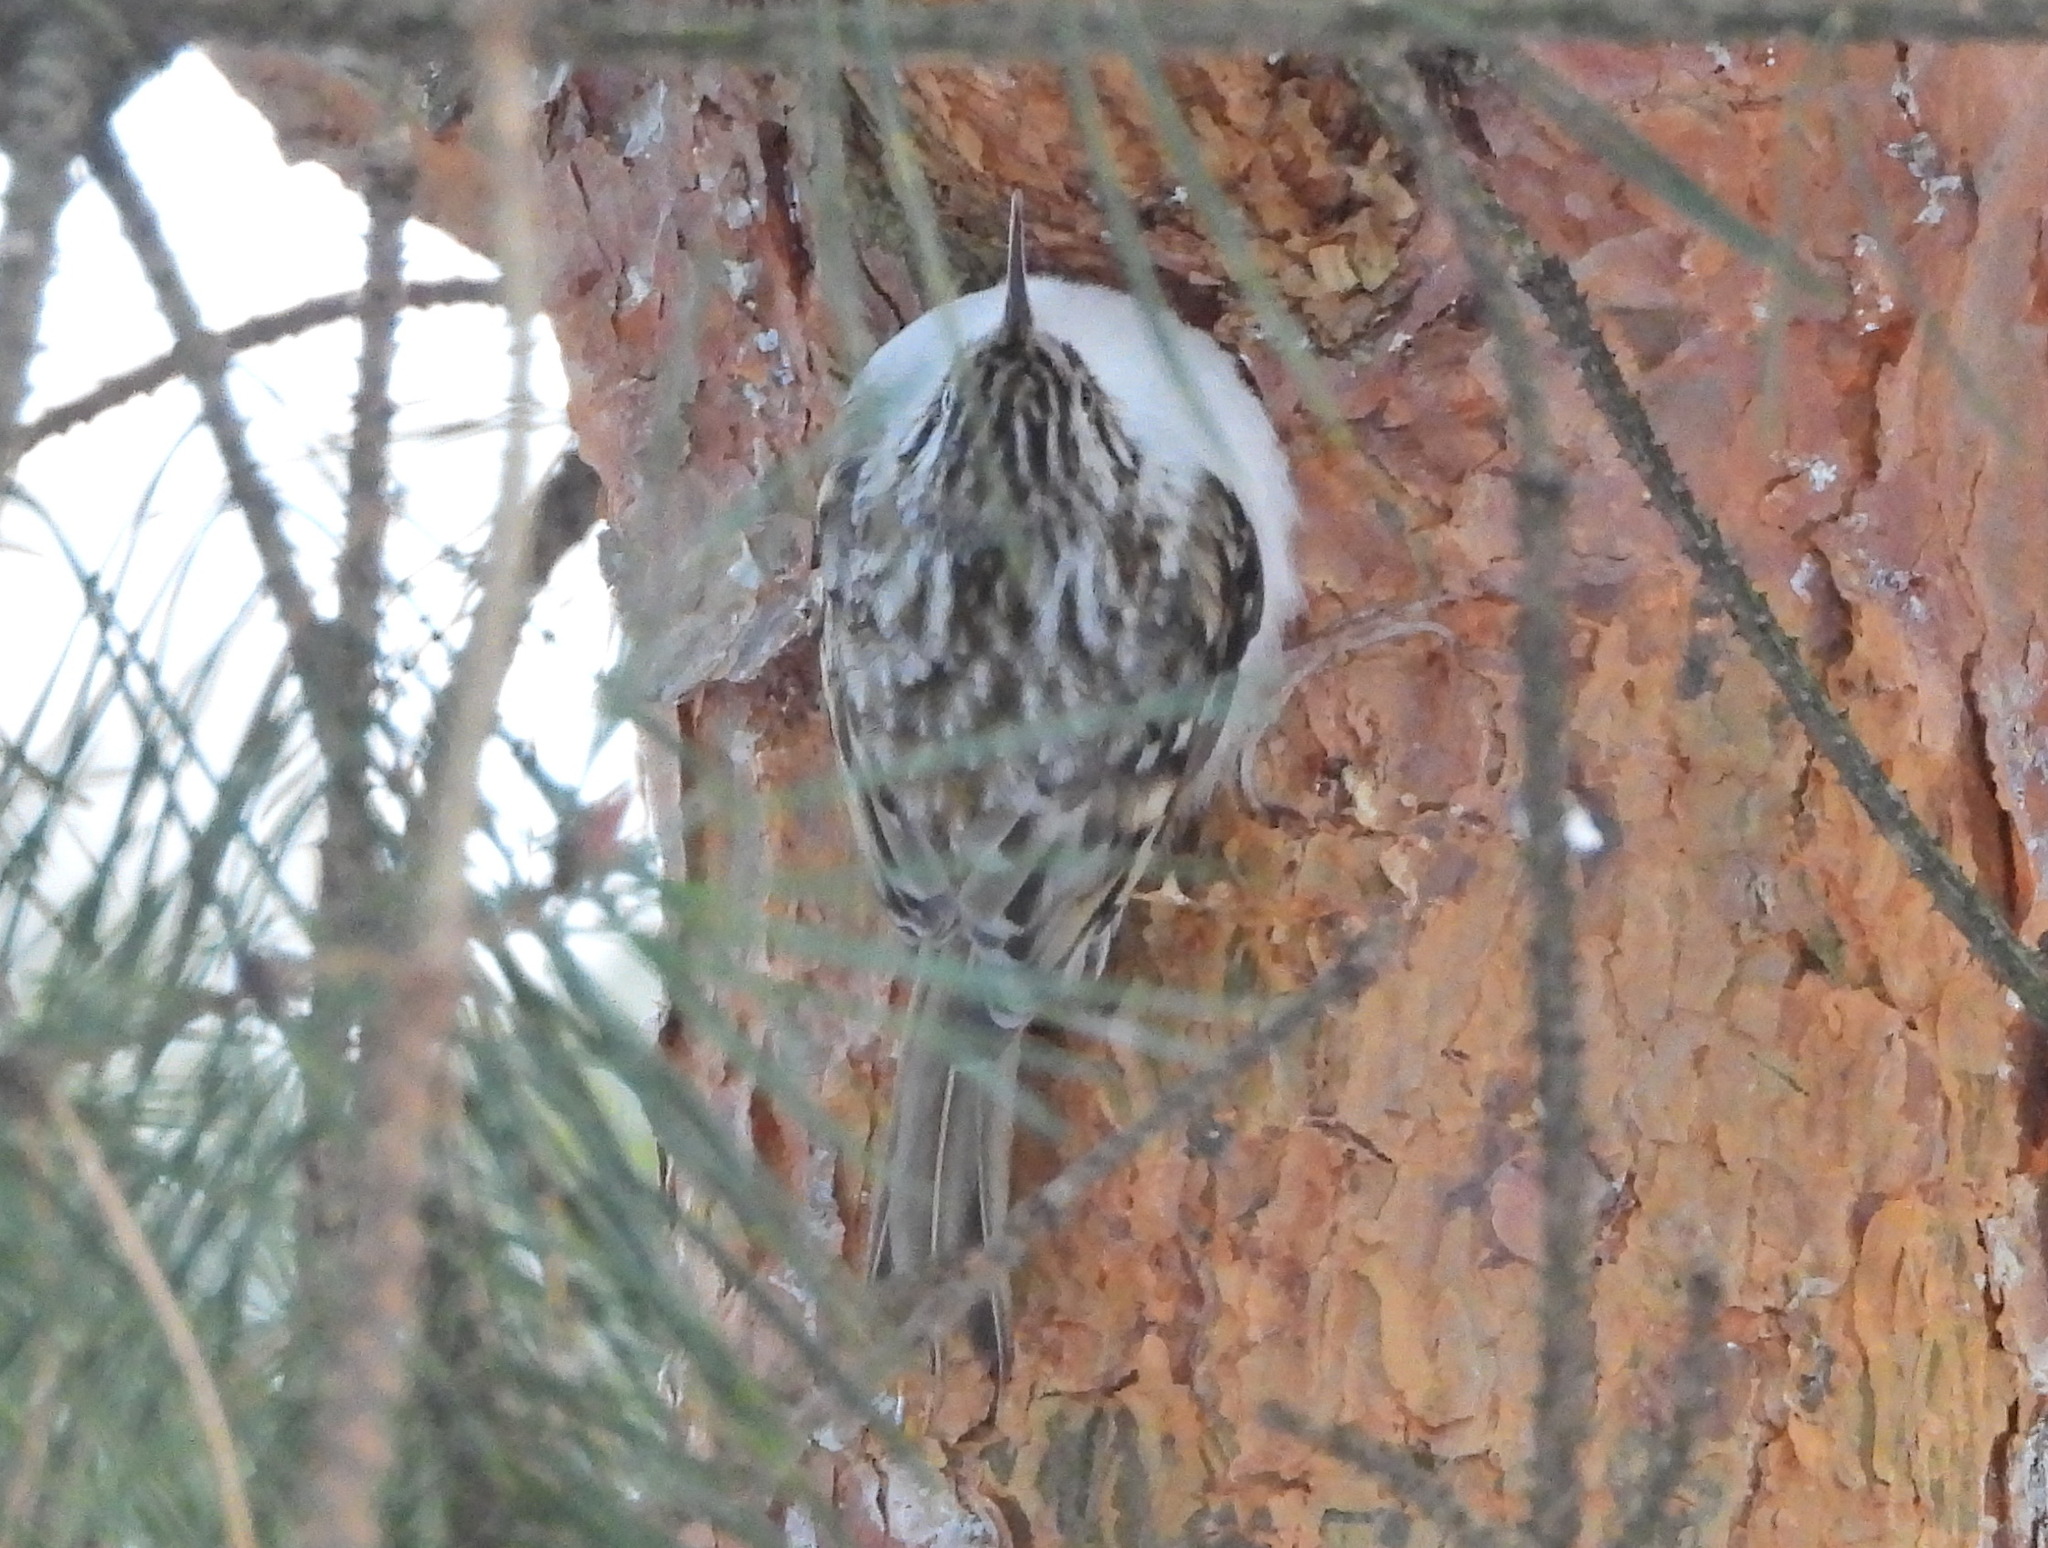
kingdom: Animalia
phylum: Chordata
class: Aves
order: Passeriformes
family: Certhiidae
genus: Certhia
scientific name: Certhia familiaris
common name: Eurasian treecreeper
